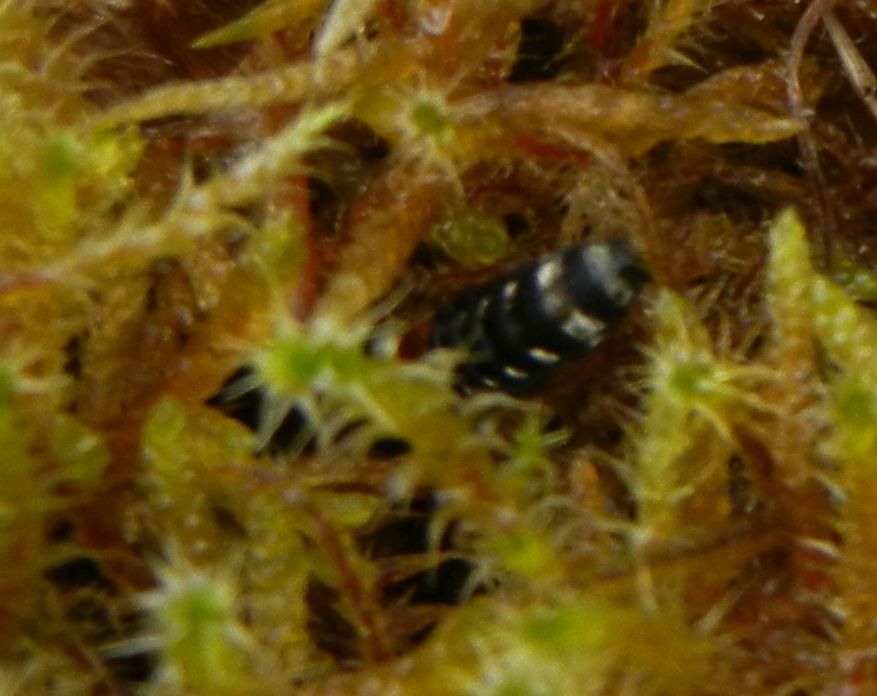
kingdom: Animalia
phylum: Arthropoda
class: Insecta
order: Coleoptera
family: Staphylinidae
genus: Platydracus
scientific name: Platydracus stercorarius
